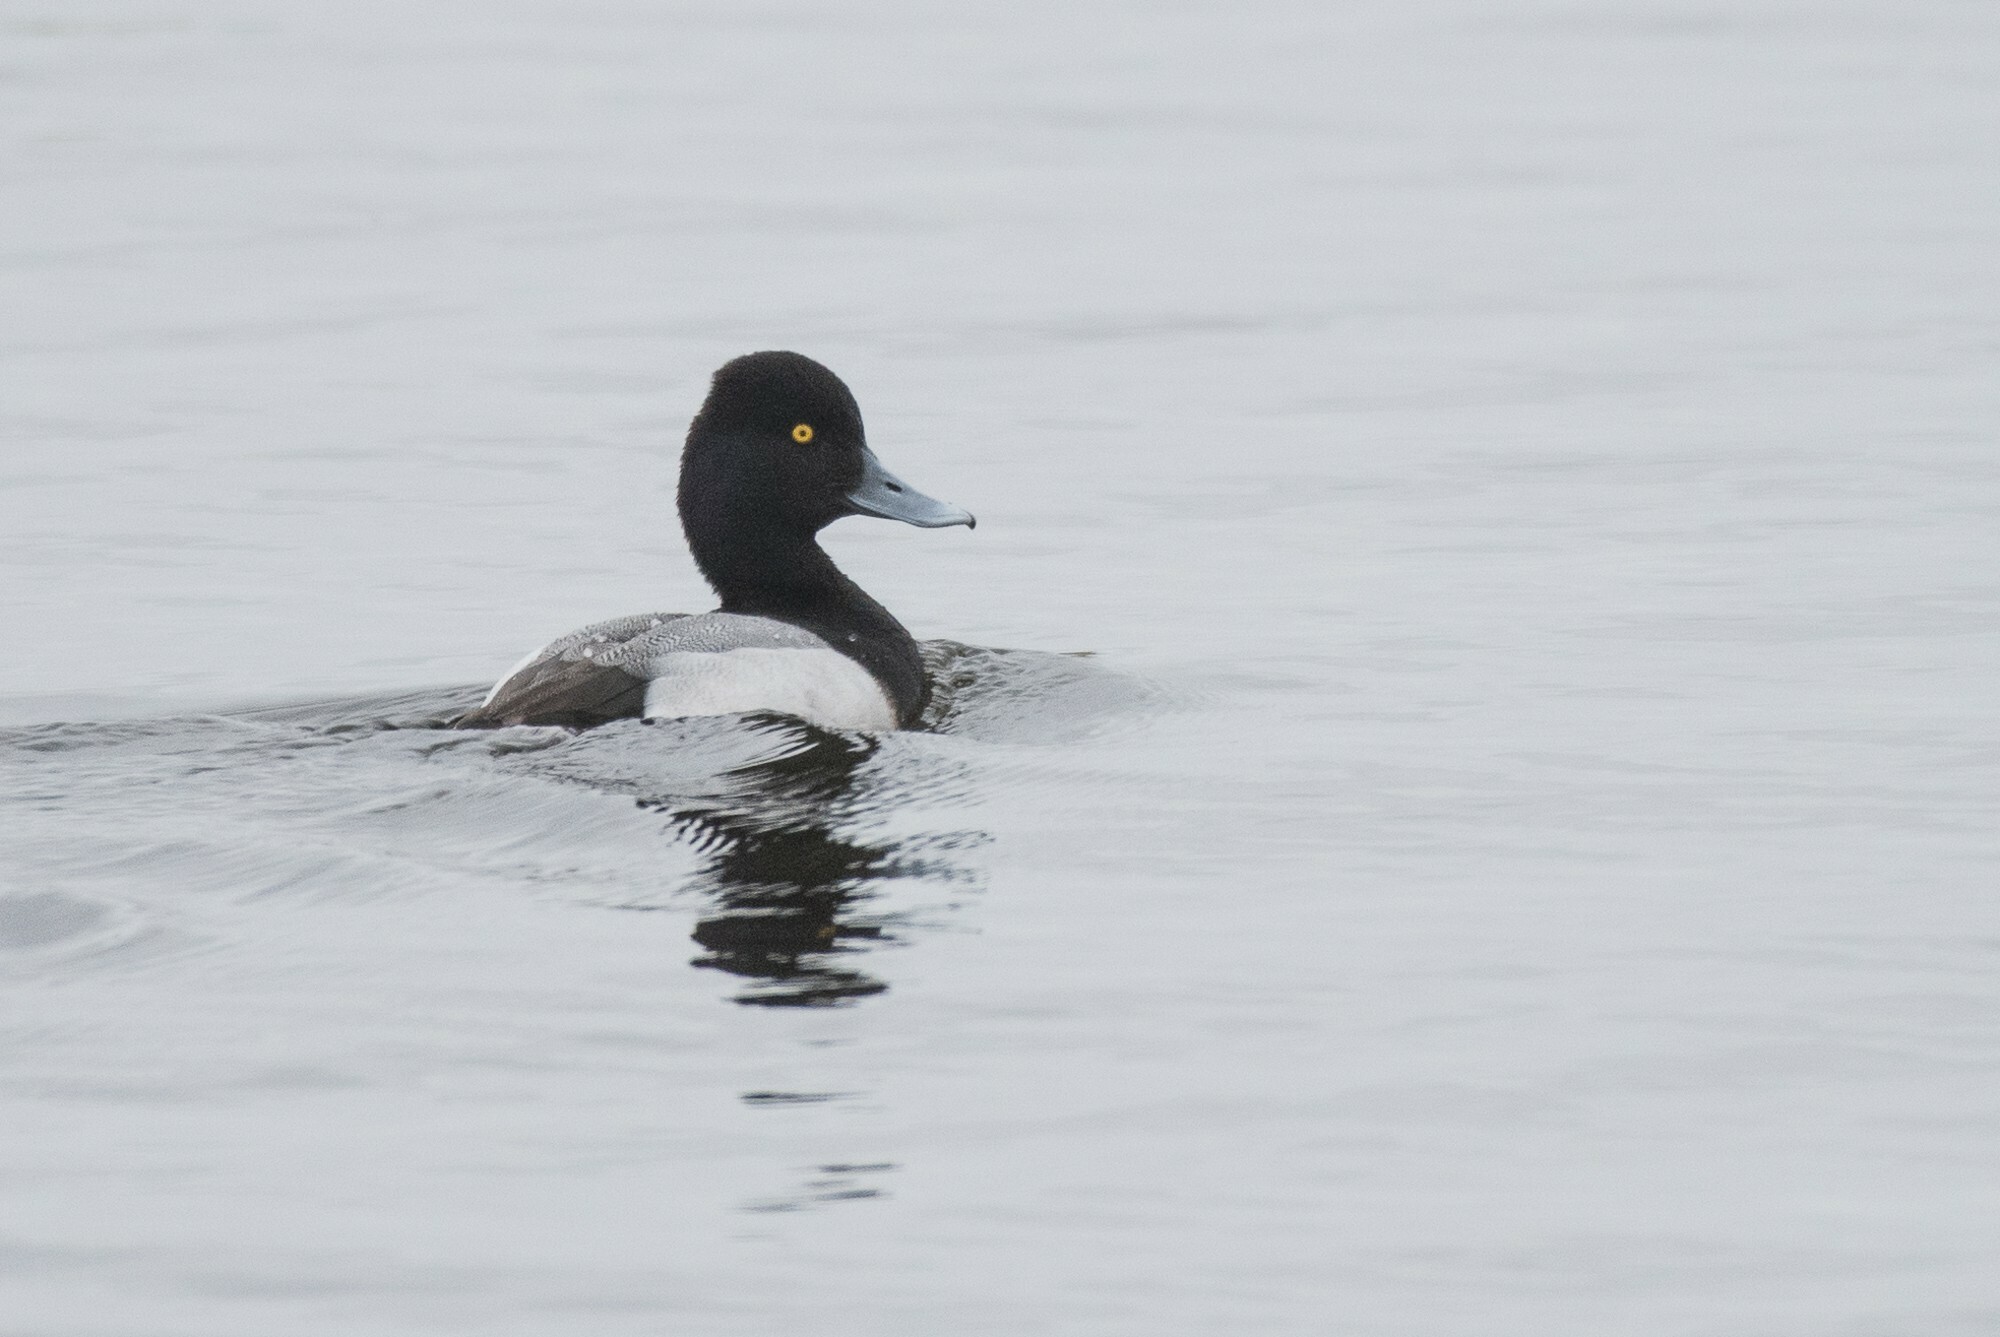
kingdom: Animalia
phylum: Chordata
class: Aves
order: Anseriformes
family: Anatidae
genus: Aythya
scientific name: Aythya affinis
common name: Lesser scaup
